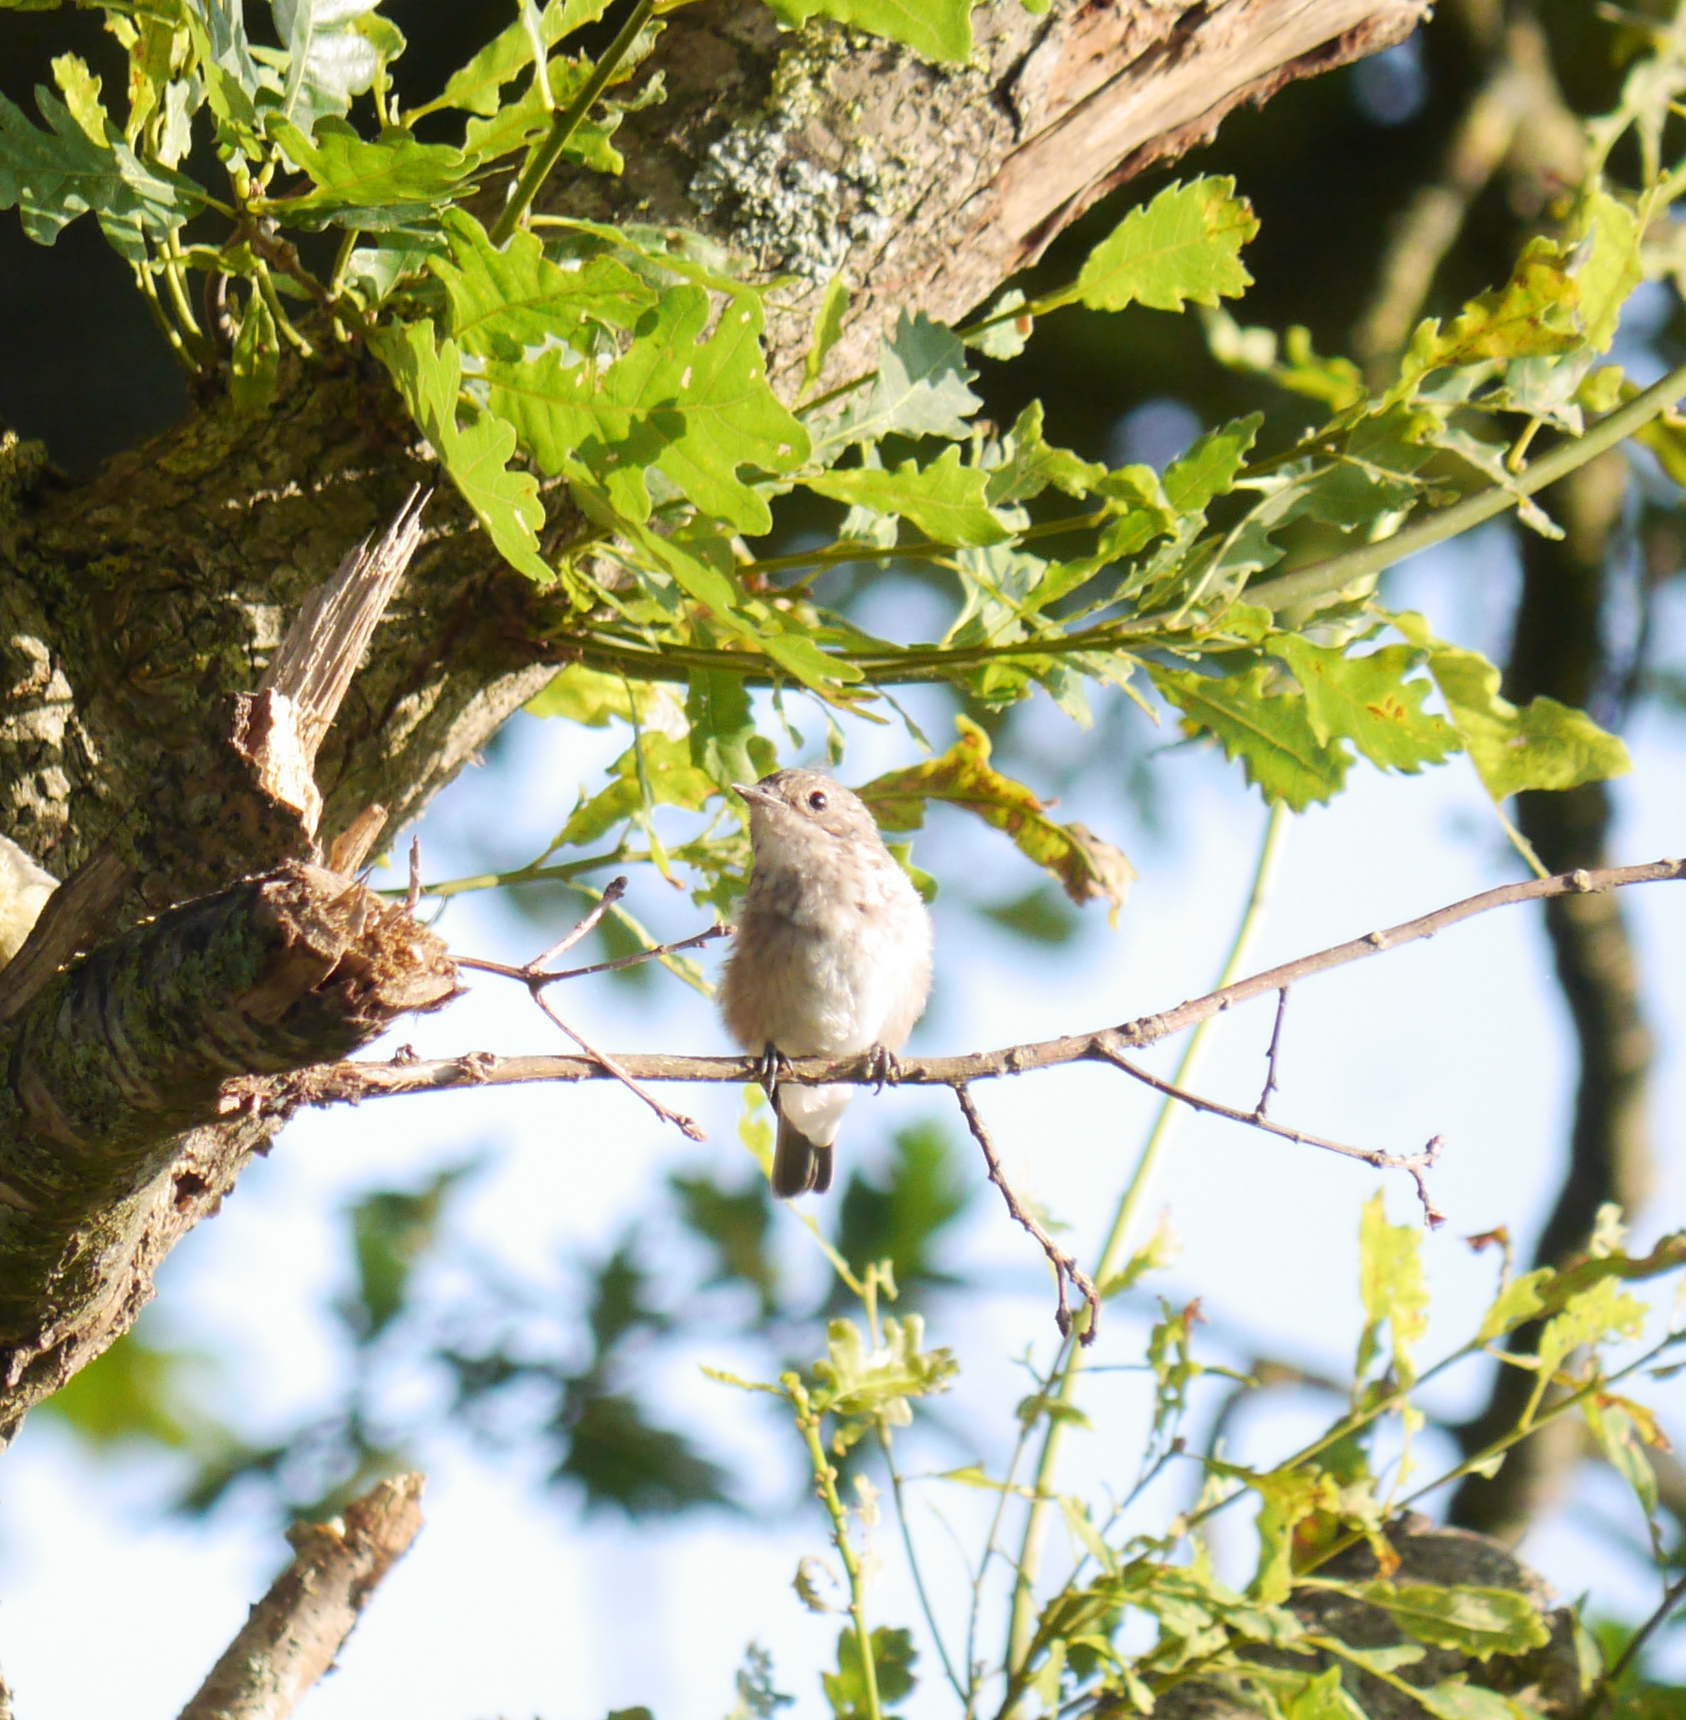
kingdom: Animalia
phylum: Chordata
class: Aves
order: Passeriformes
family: Muscicapidae
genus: Muscicapa
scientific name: Muscicapa striata
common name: Spotted flycatcher
